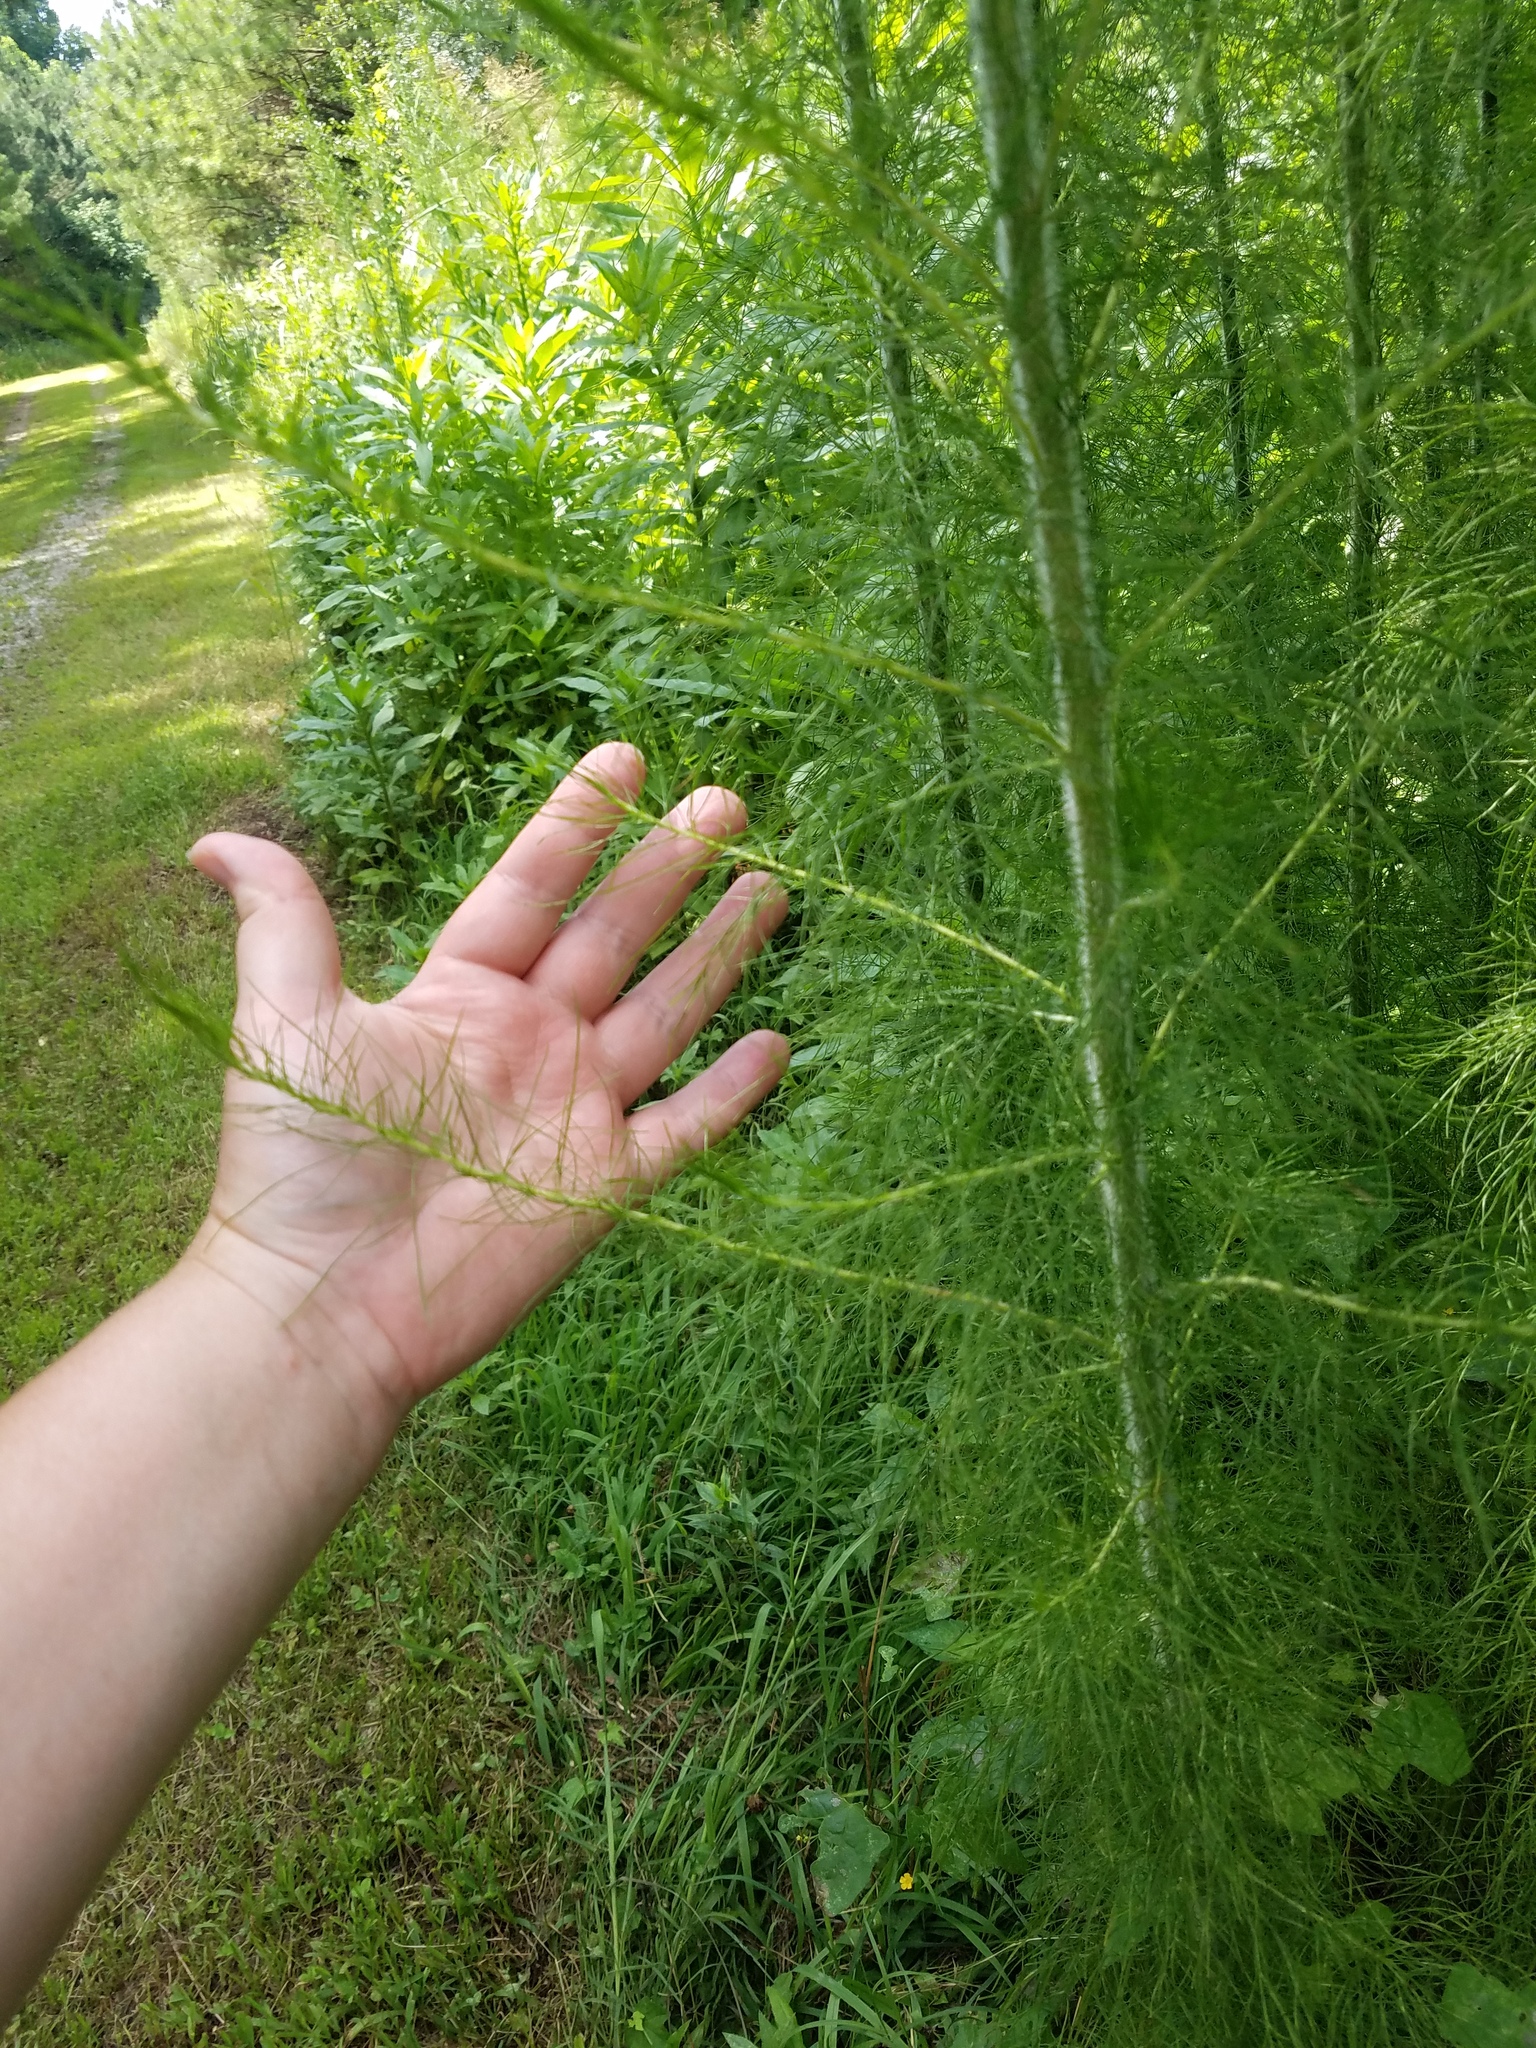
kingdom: Plantae
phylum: Tracheophyta
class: Magnoliopsida
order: Asterales
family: Asteraceae
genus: Eupatorium
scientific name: Eupatorium capillifolium
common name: Dog-fennel
